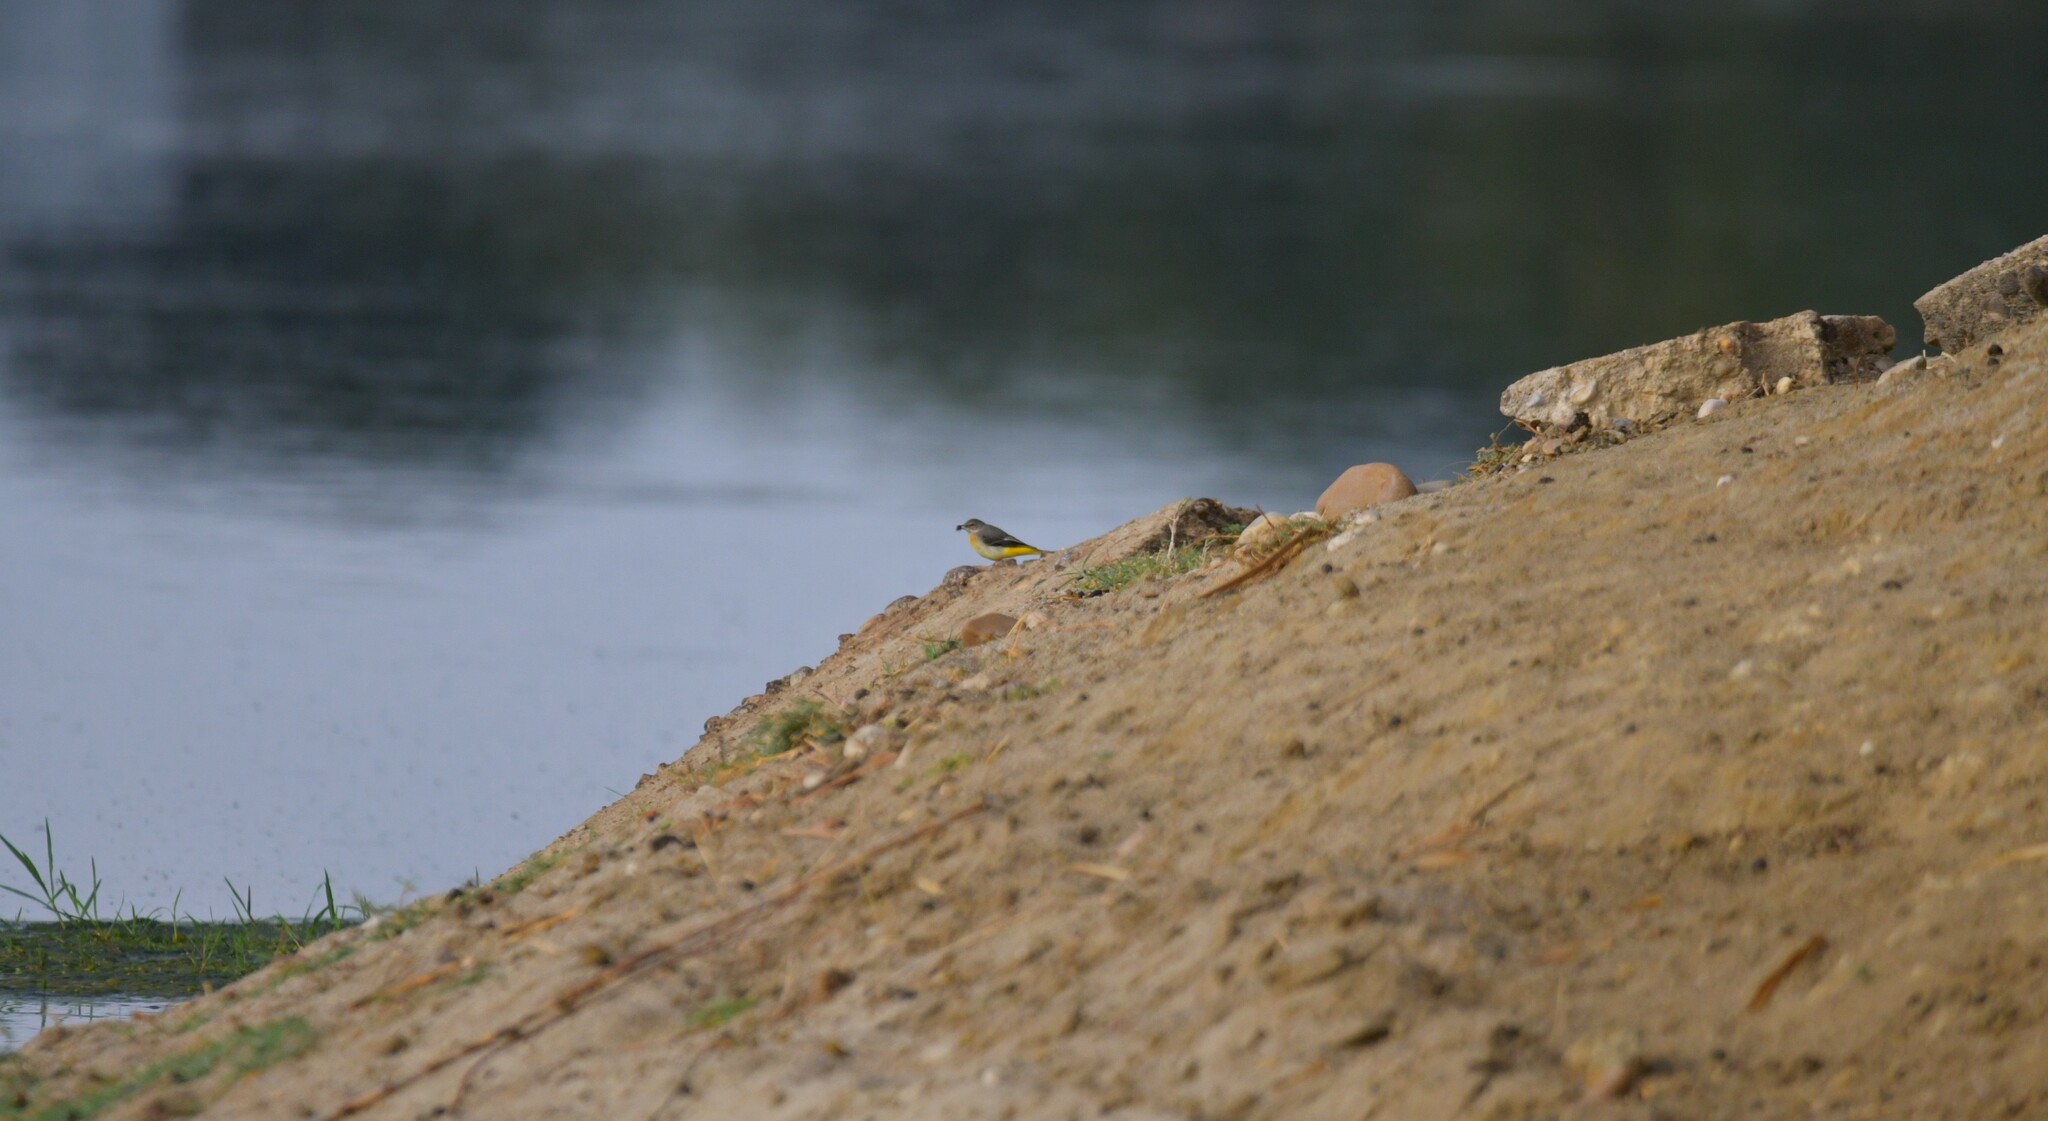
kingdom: Animalia
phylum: Chordata
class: Aves
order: Passeriformes
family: Motacillidae
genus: Motacilla
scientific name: Motacilla cinerea
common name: Grey wagtail
